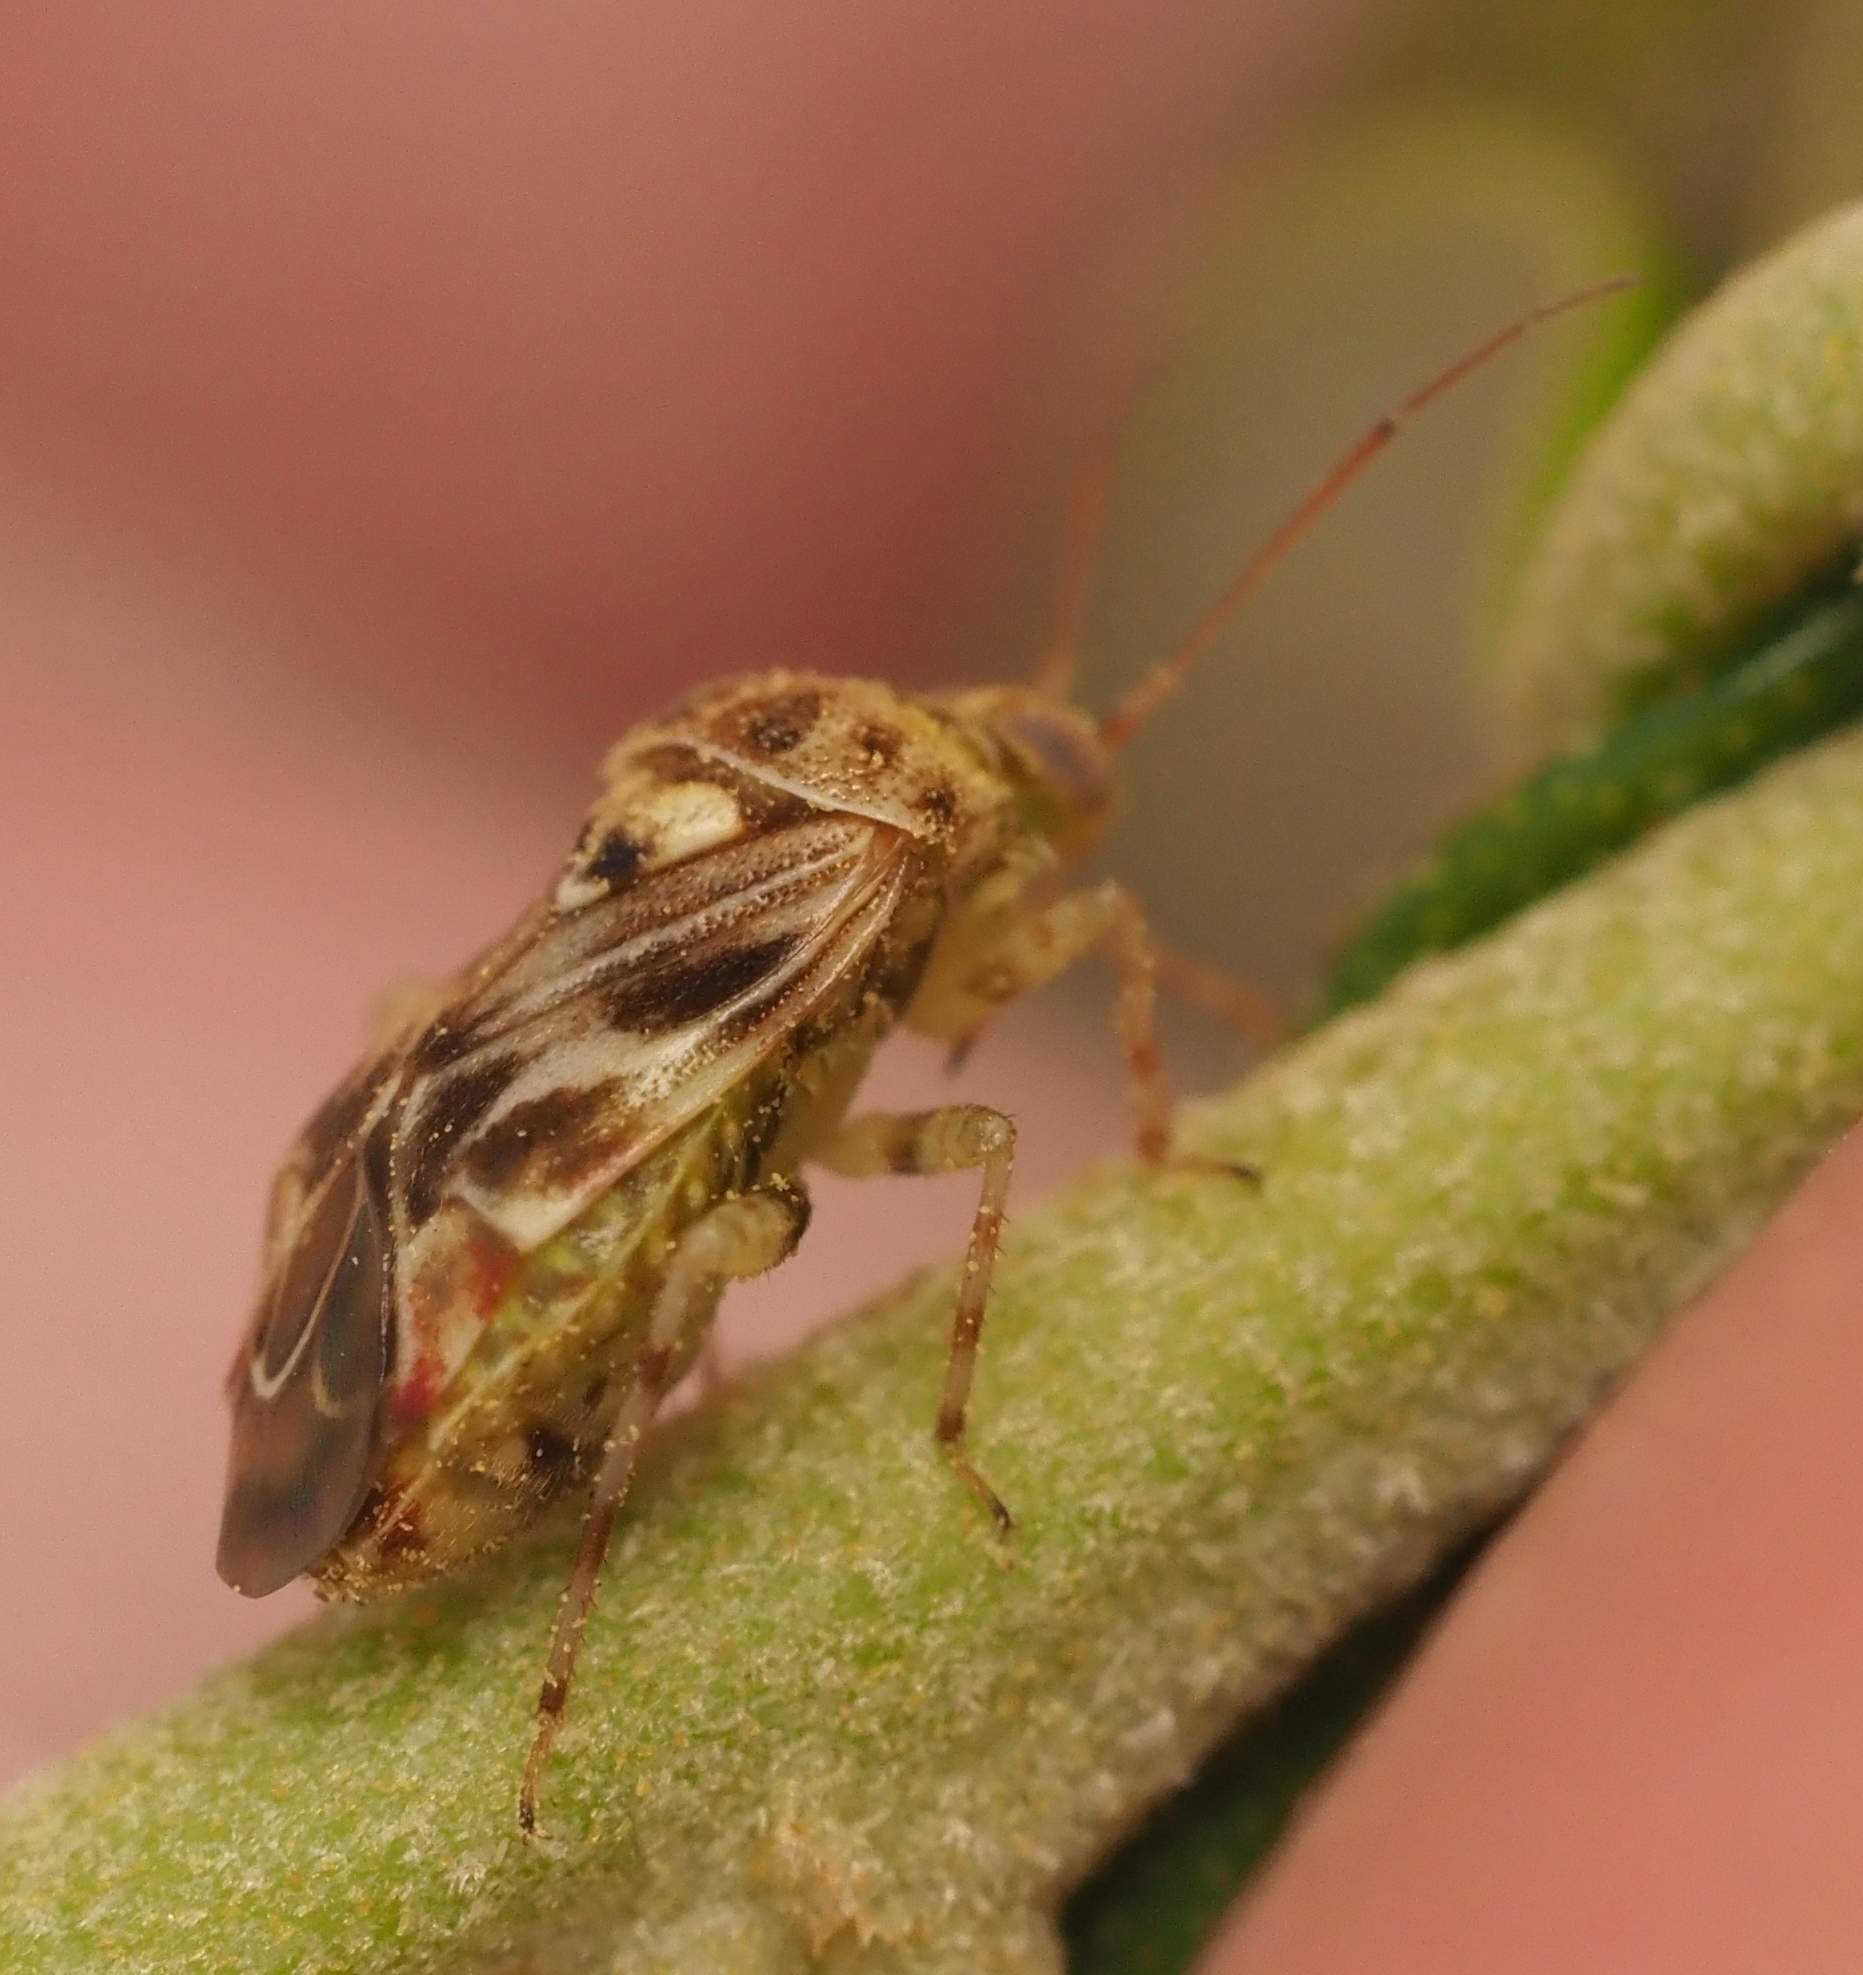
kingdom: Animalia
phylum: Arthropoda
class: Insecta
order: Hemiptera
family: Miridae
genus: Tropidosteptes
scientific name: Tropidosteptes quercicola
